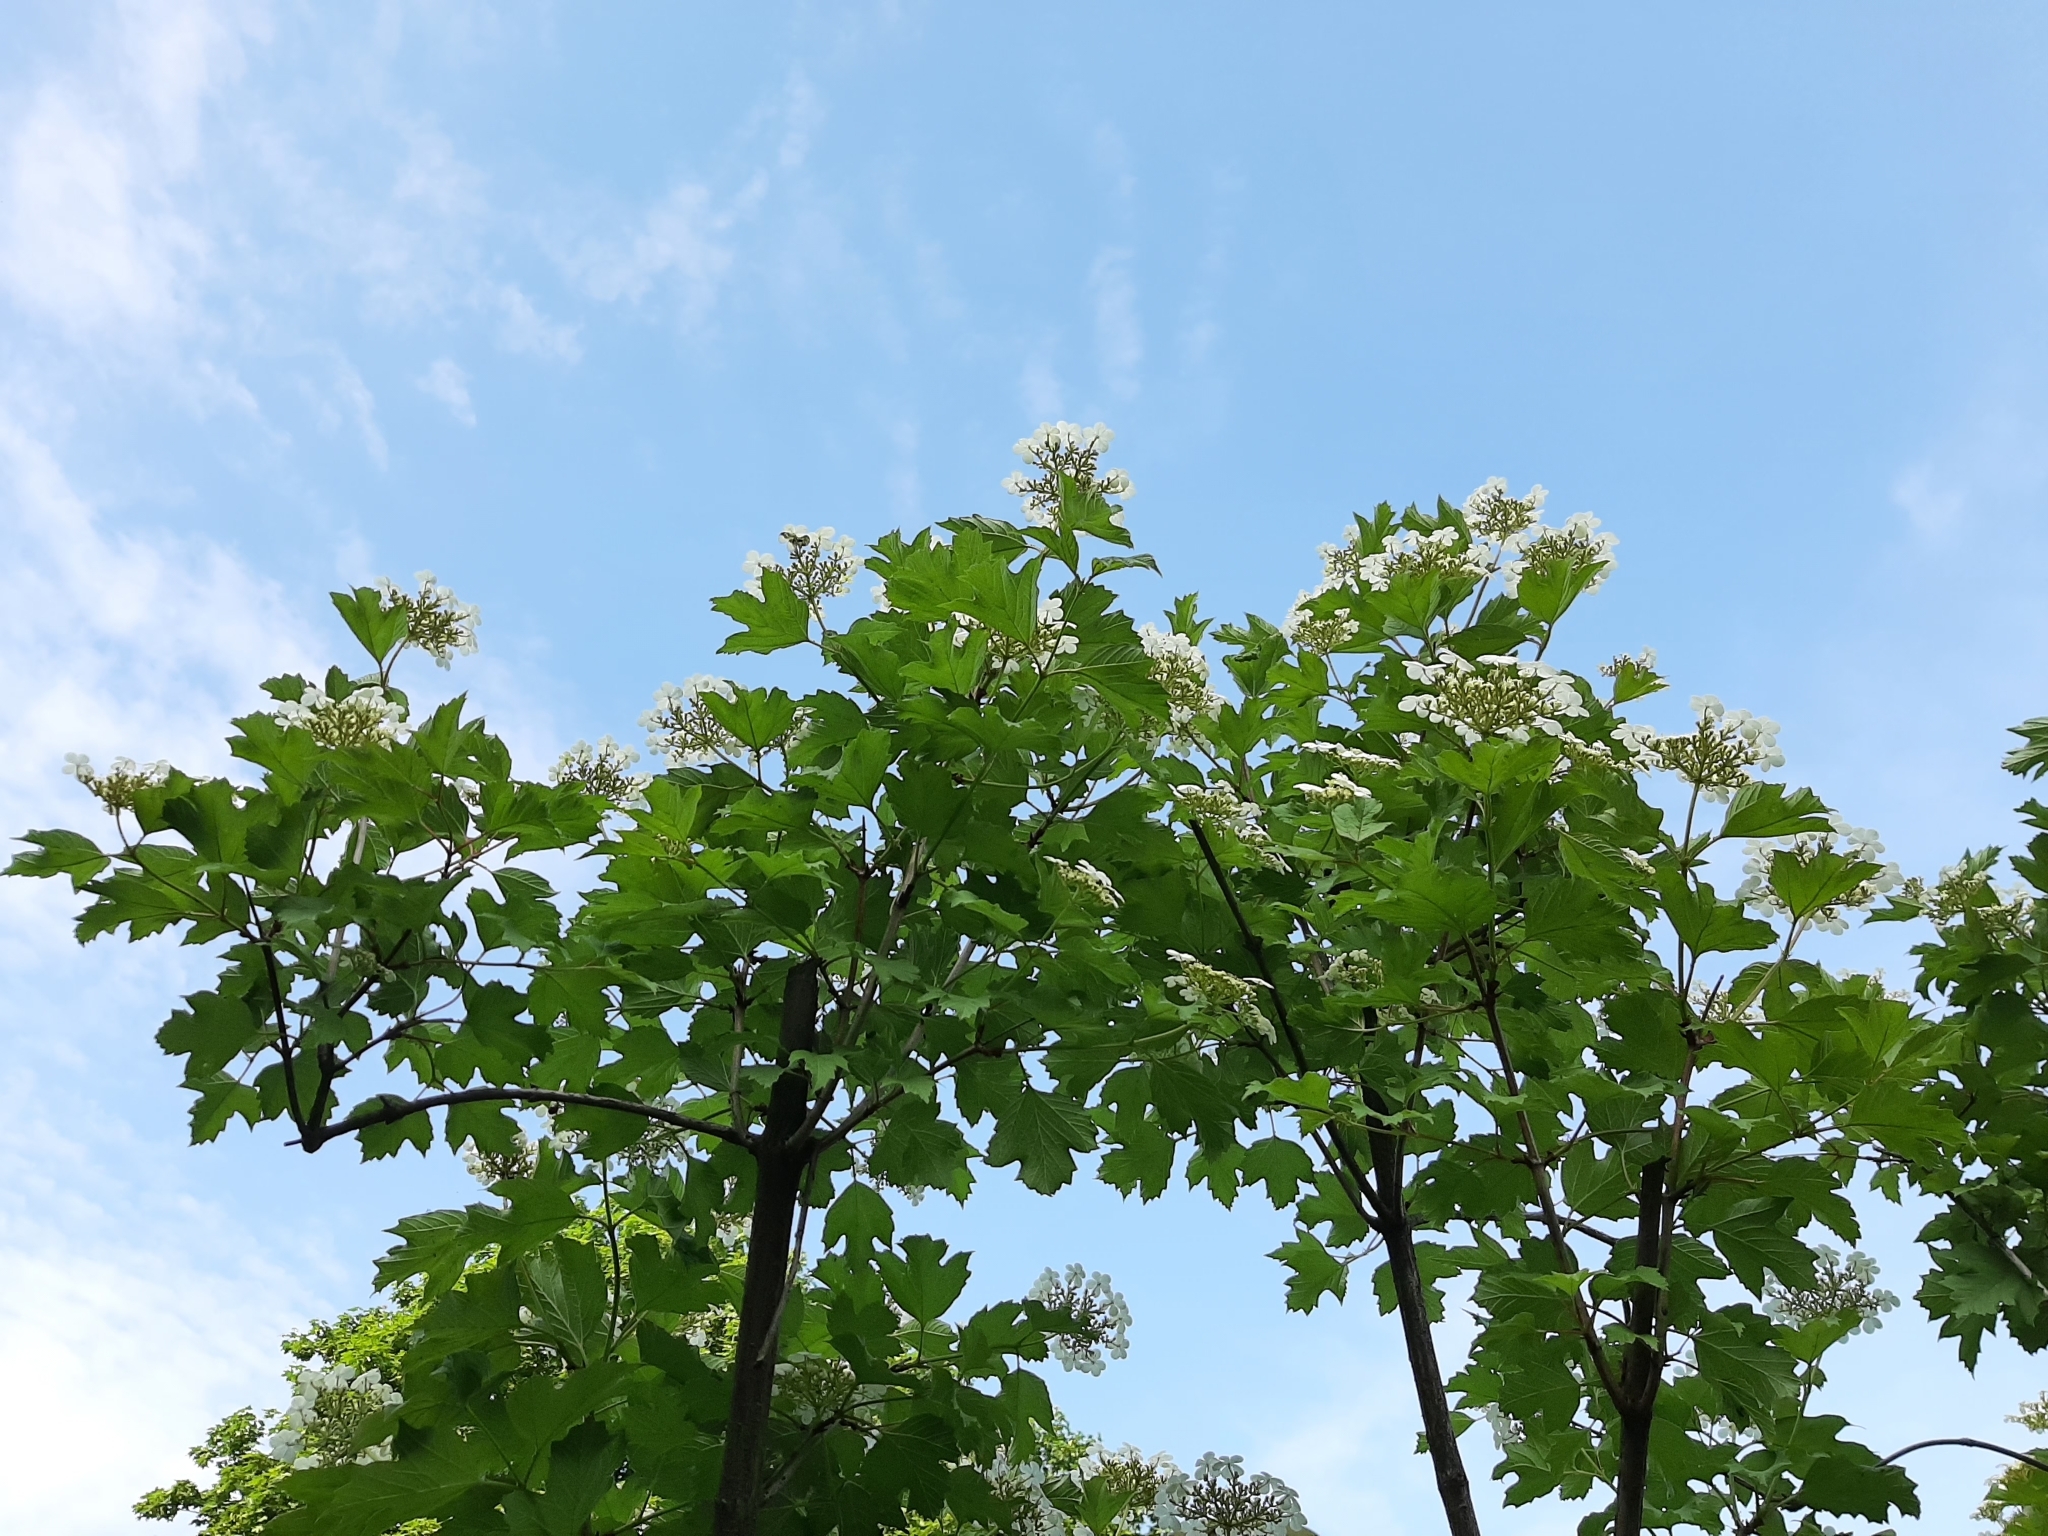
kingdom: Plantae
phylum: Tracheophyta
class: Magnoliopsida
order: Dipsacales
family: Viburnaceae
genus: Viburnum
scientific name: Viburnum opulus
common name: Guelder-rose
